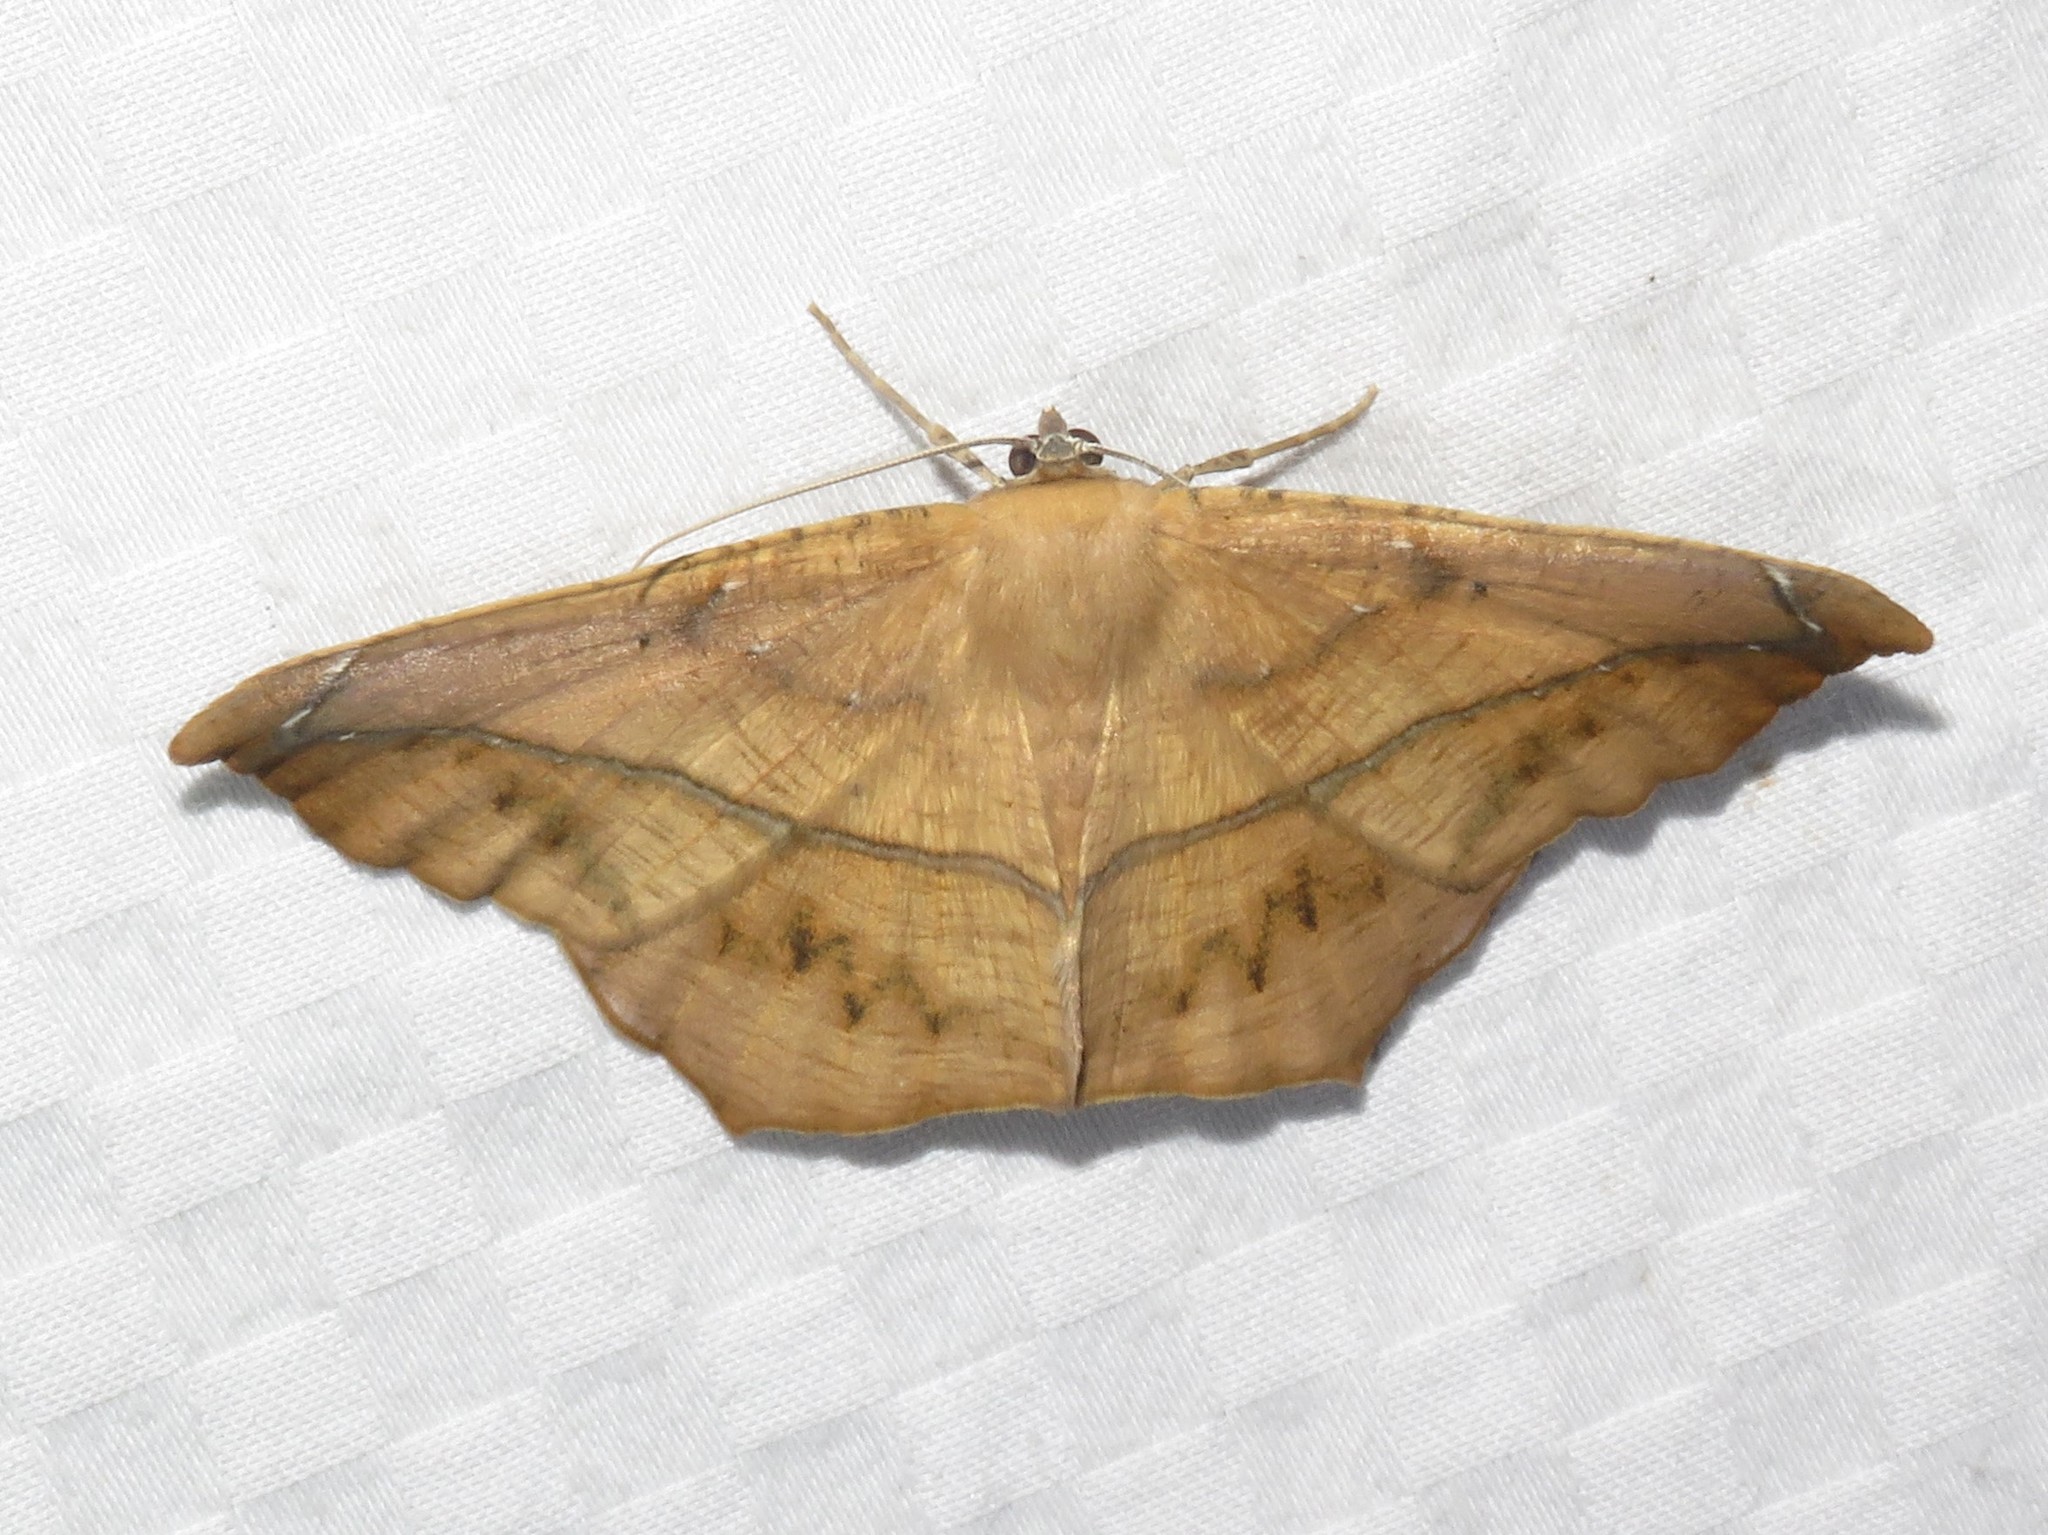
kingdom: Animalia
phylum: Arthropoda
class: Insecta
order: Lepidoptera
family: Geometridae
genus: Prochoerodes
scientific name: Prochoerodes lineola
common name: Large maple spanworm
